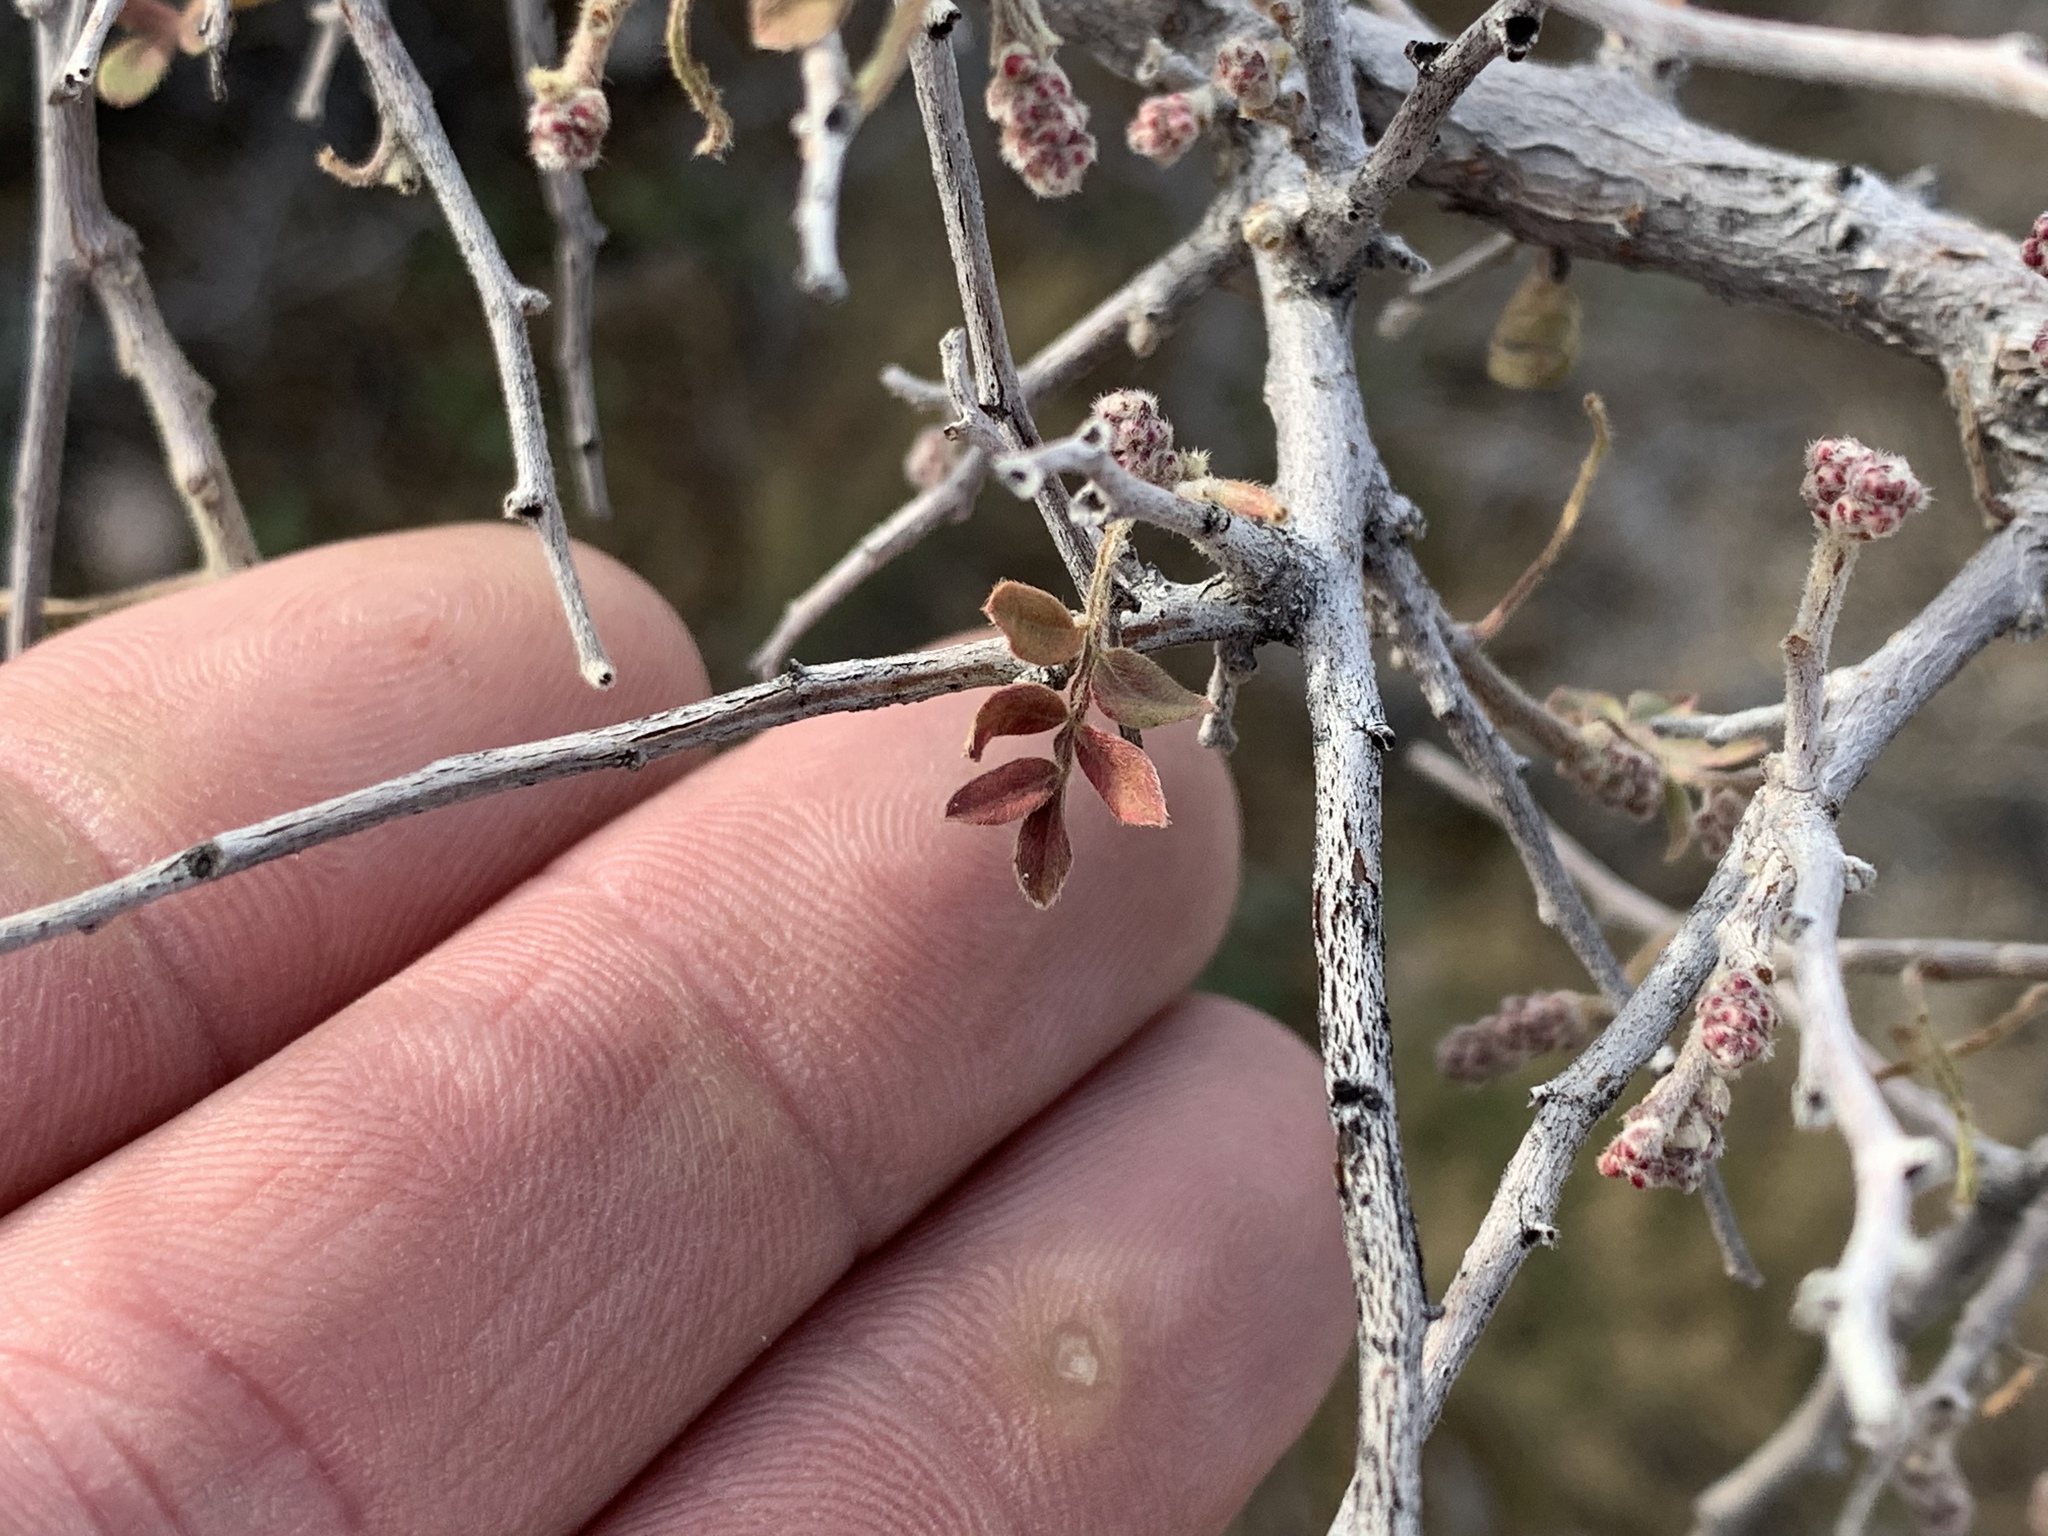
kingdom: Plantae
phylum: Tracheophyta
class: Magnoliopsida
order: Sapindales
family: Anacardiaceae
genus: Rhus
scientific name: Rhus microphylla
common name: Desert sumac
